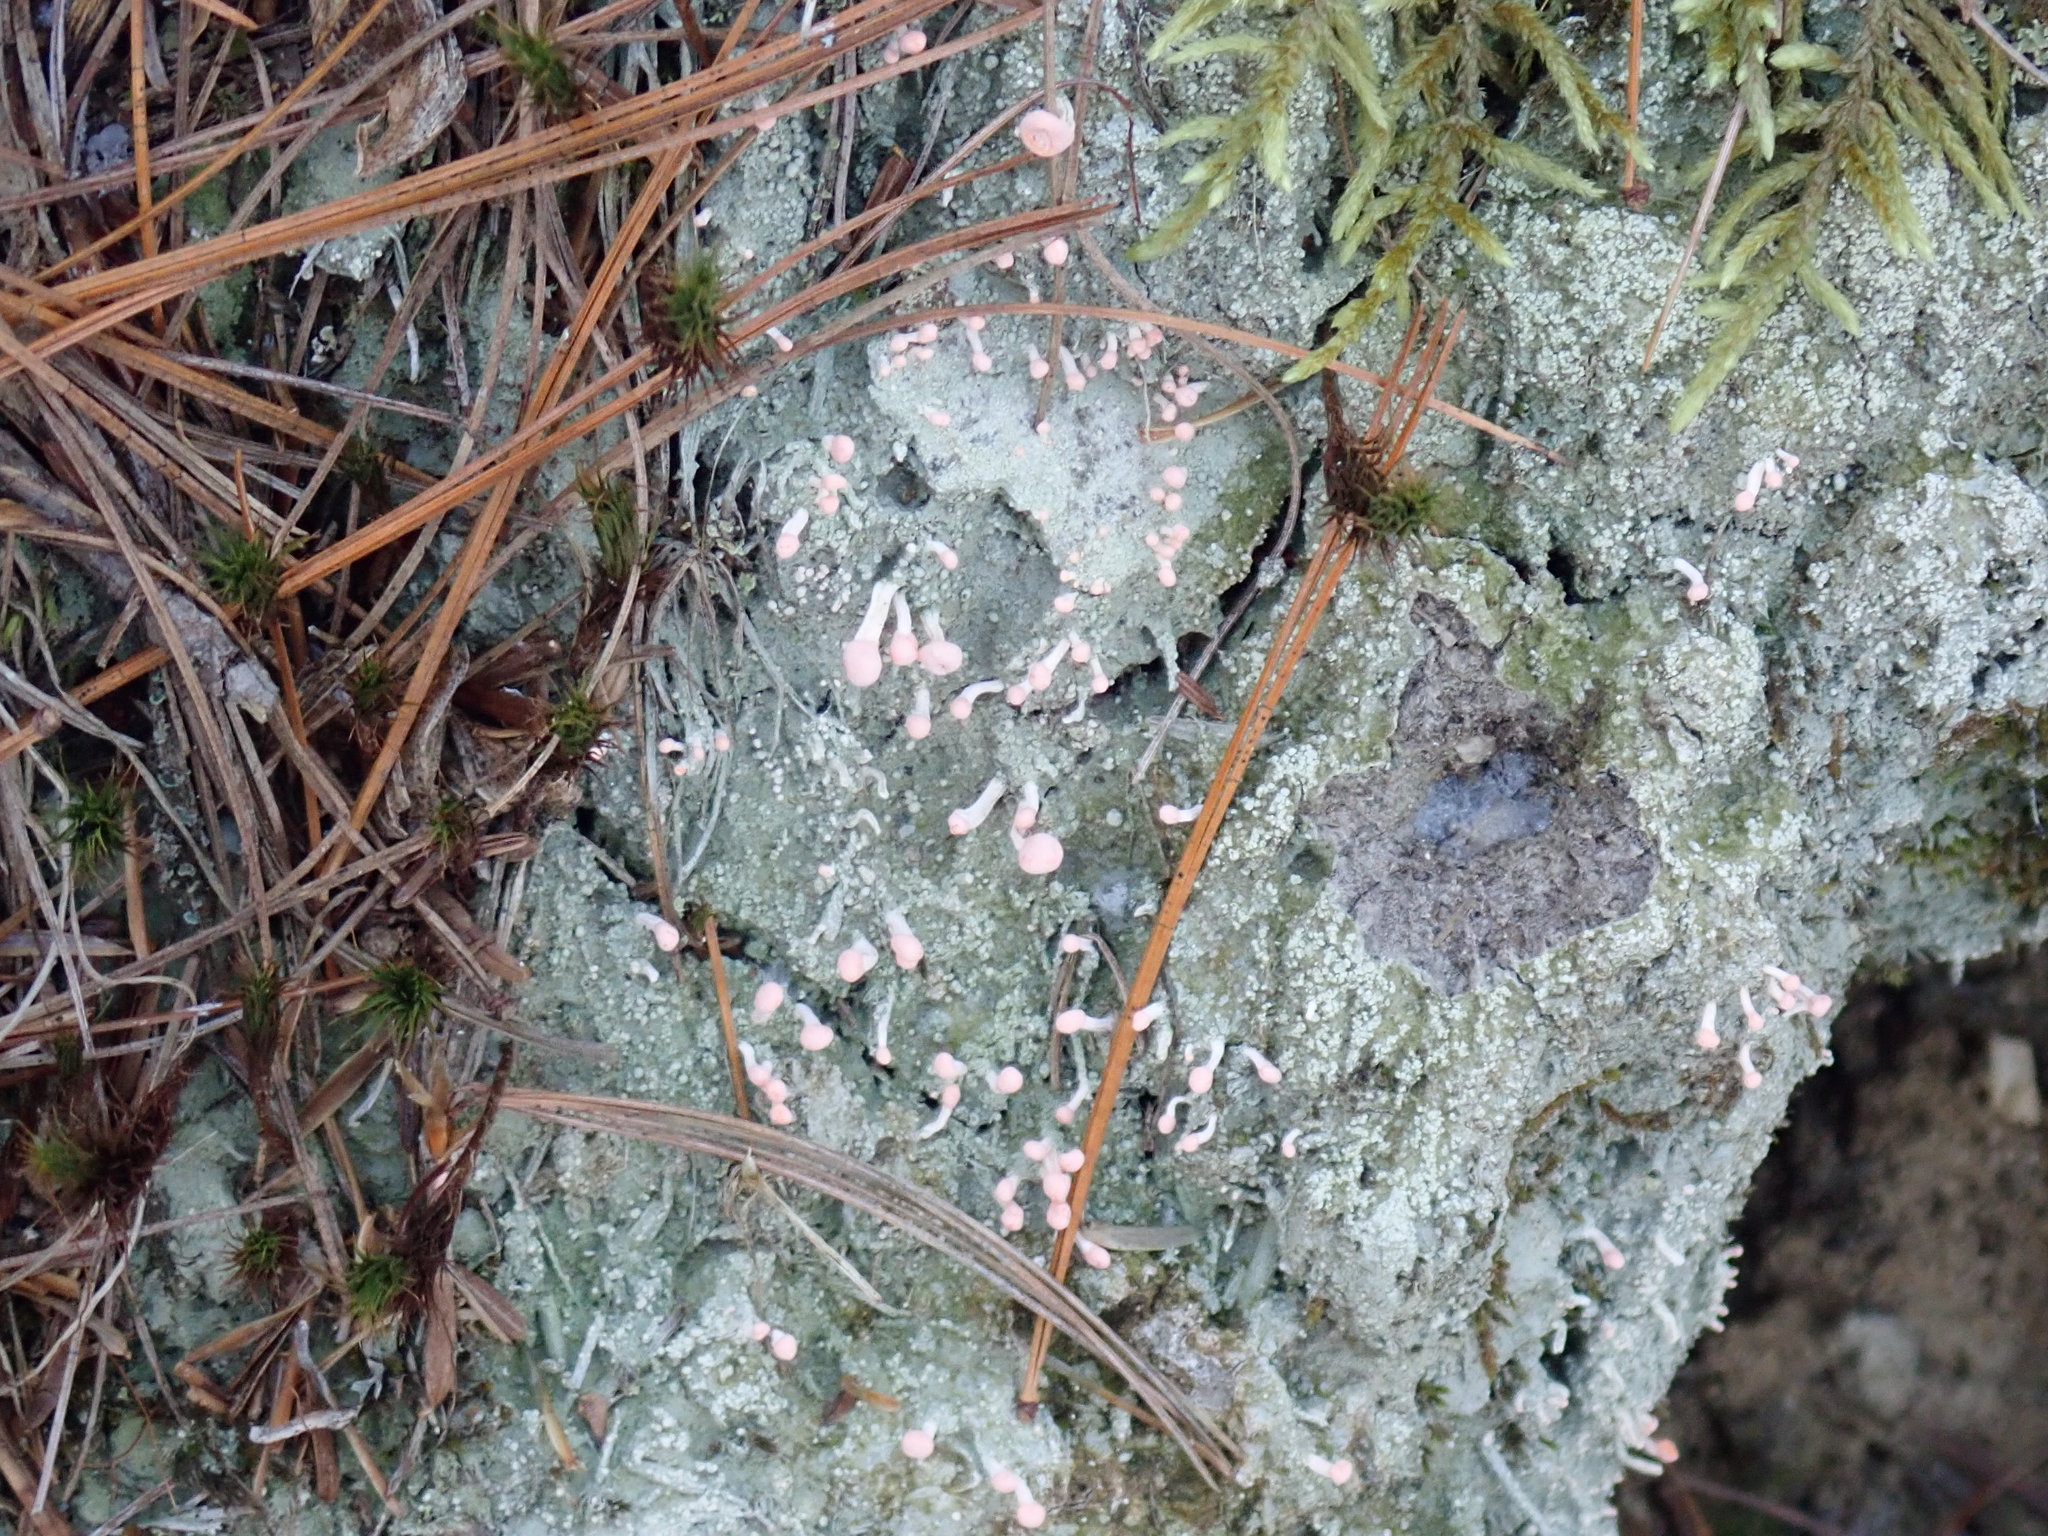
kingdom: Fungi
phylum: Ascomycota
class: Lecanoromycetes
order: Pertusariales
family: Icmadophilaceae
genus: Dibaeis
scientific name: Dibaeis baeomyces
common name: Pink earth lichen
